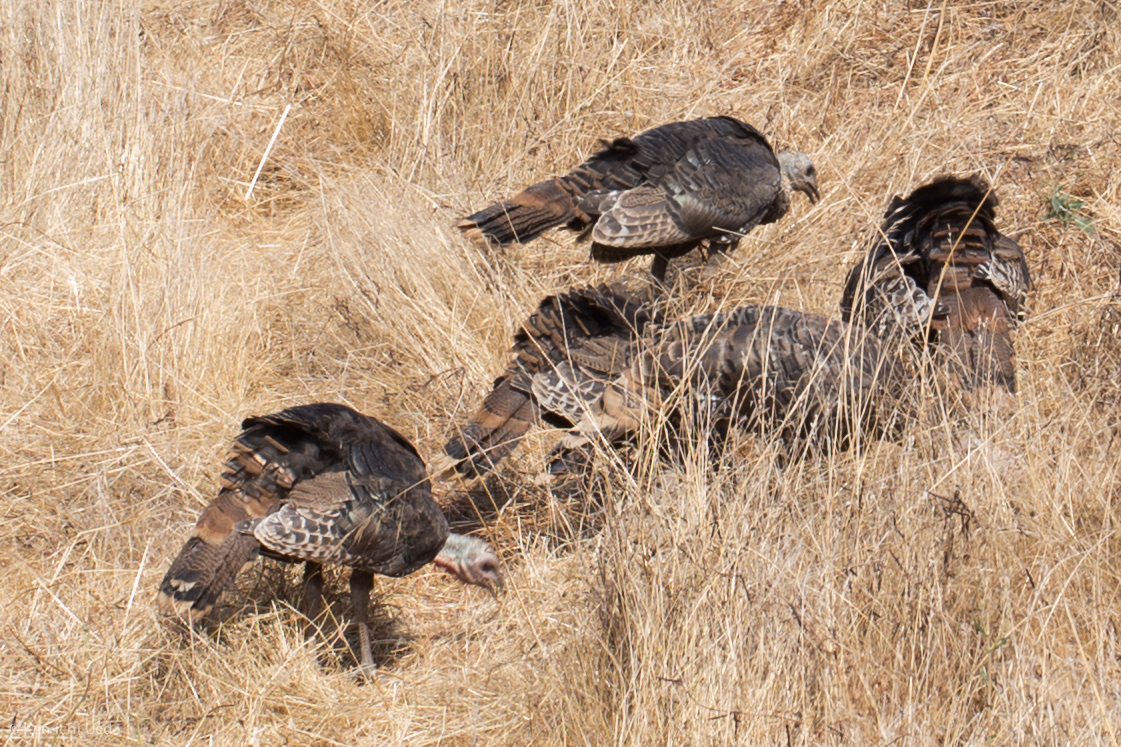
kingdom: Animalia
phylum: Chordata
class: Aves
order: Galliformes
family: Phasianidae
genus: Meleagris
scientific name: Meleagris gallopavo
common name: Wild turkey
